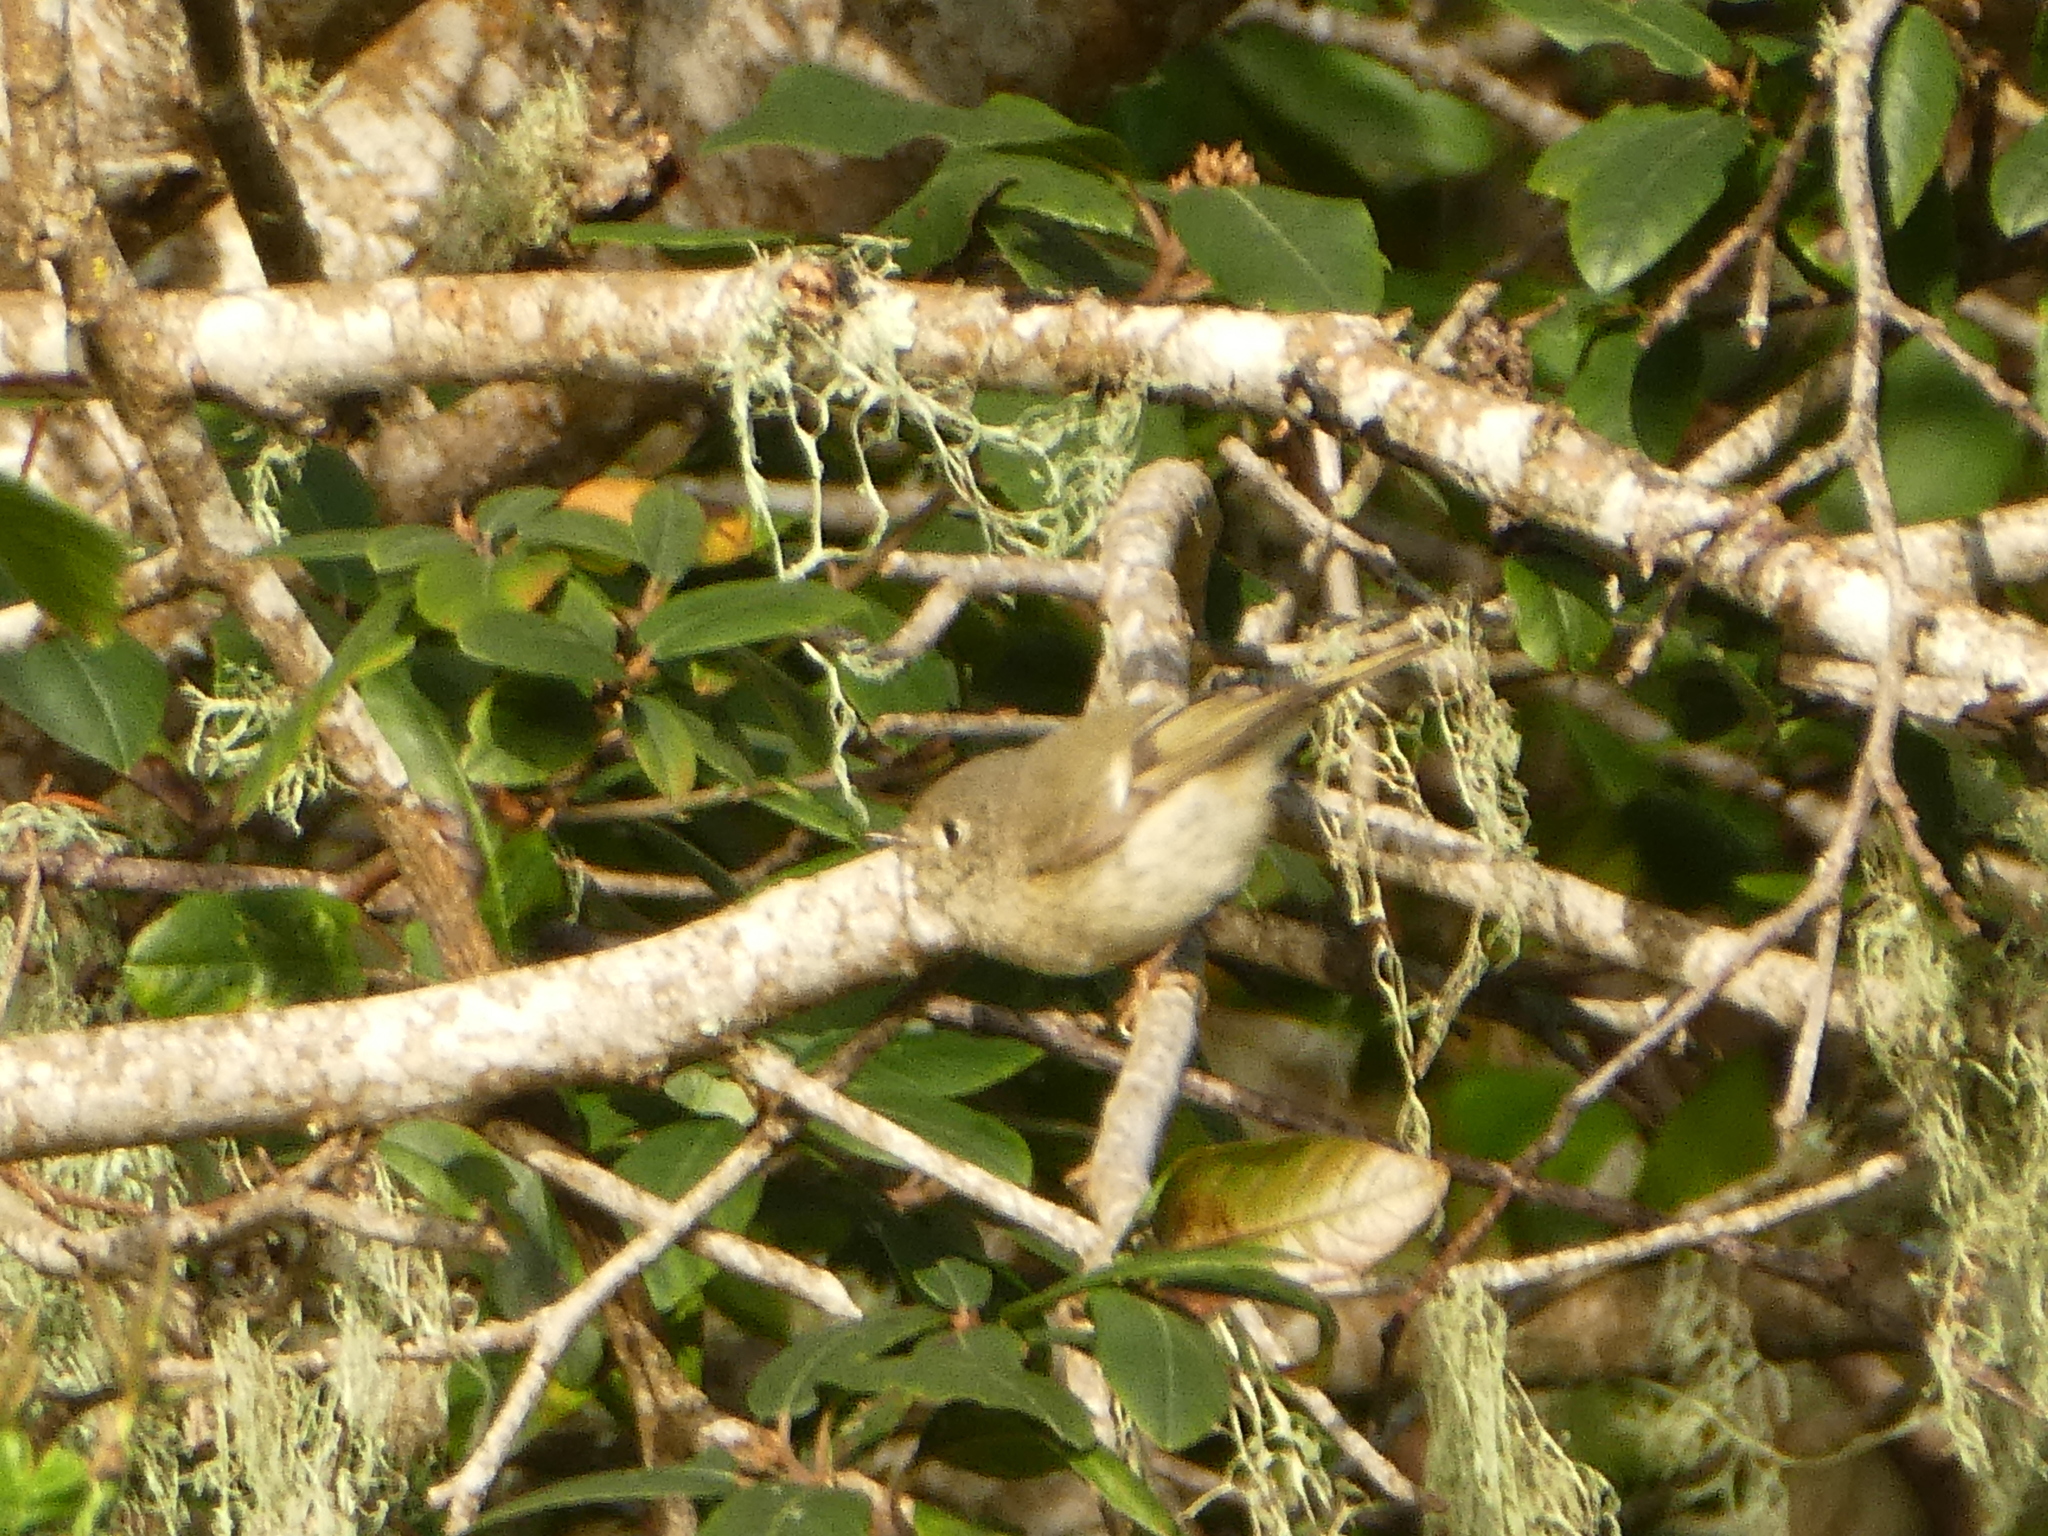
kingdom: Animalia
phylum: Chordata
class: Aves
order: Passeriformes
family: Regulidae
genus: Regulus
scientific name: Regulus calendula
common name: Ruby-crowned kinglet
